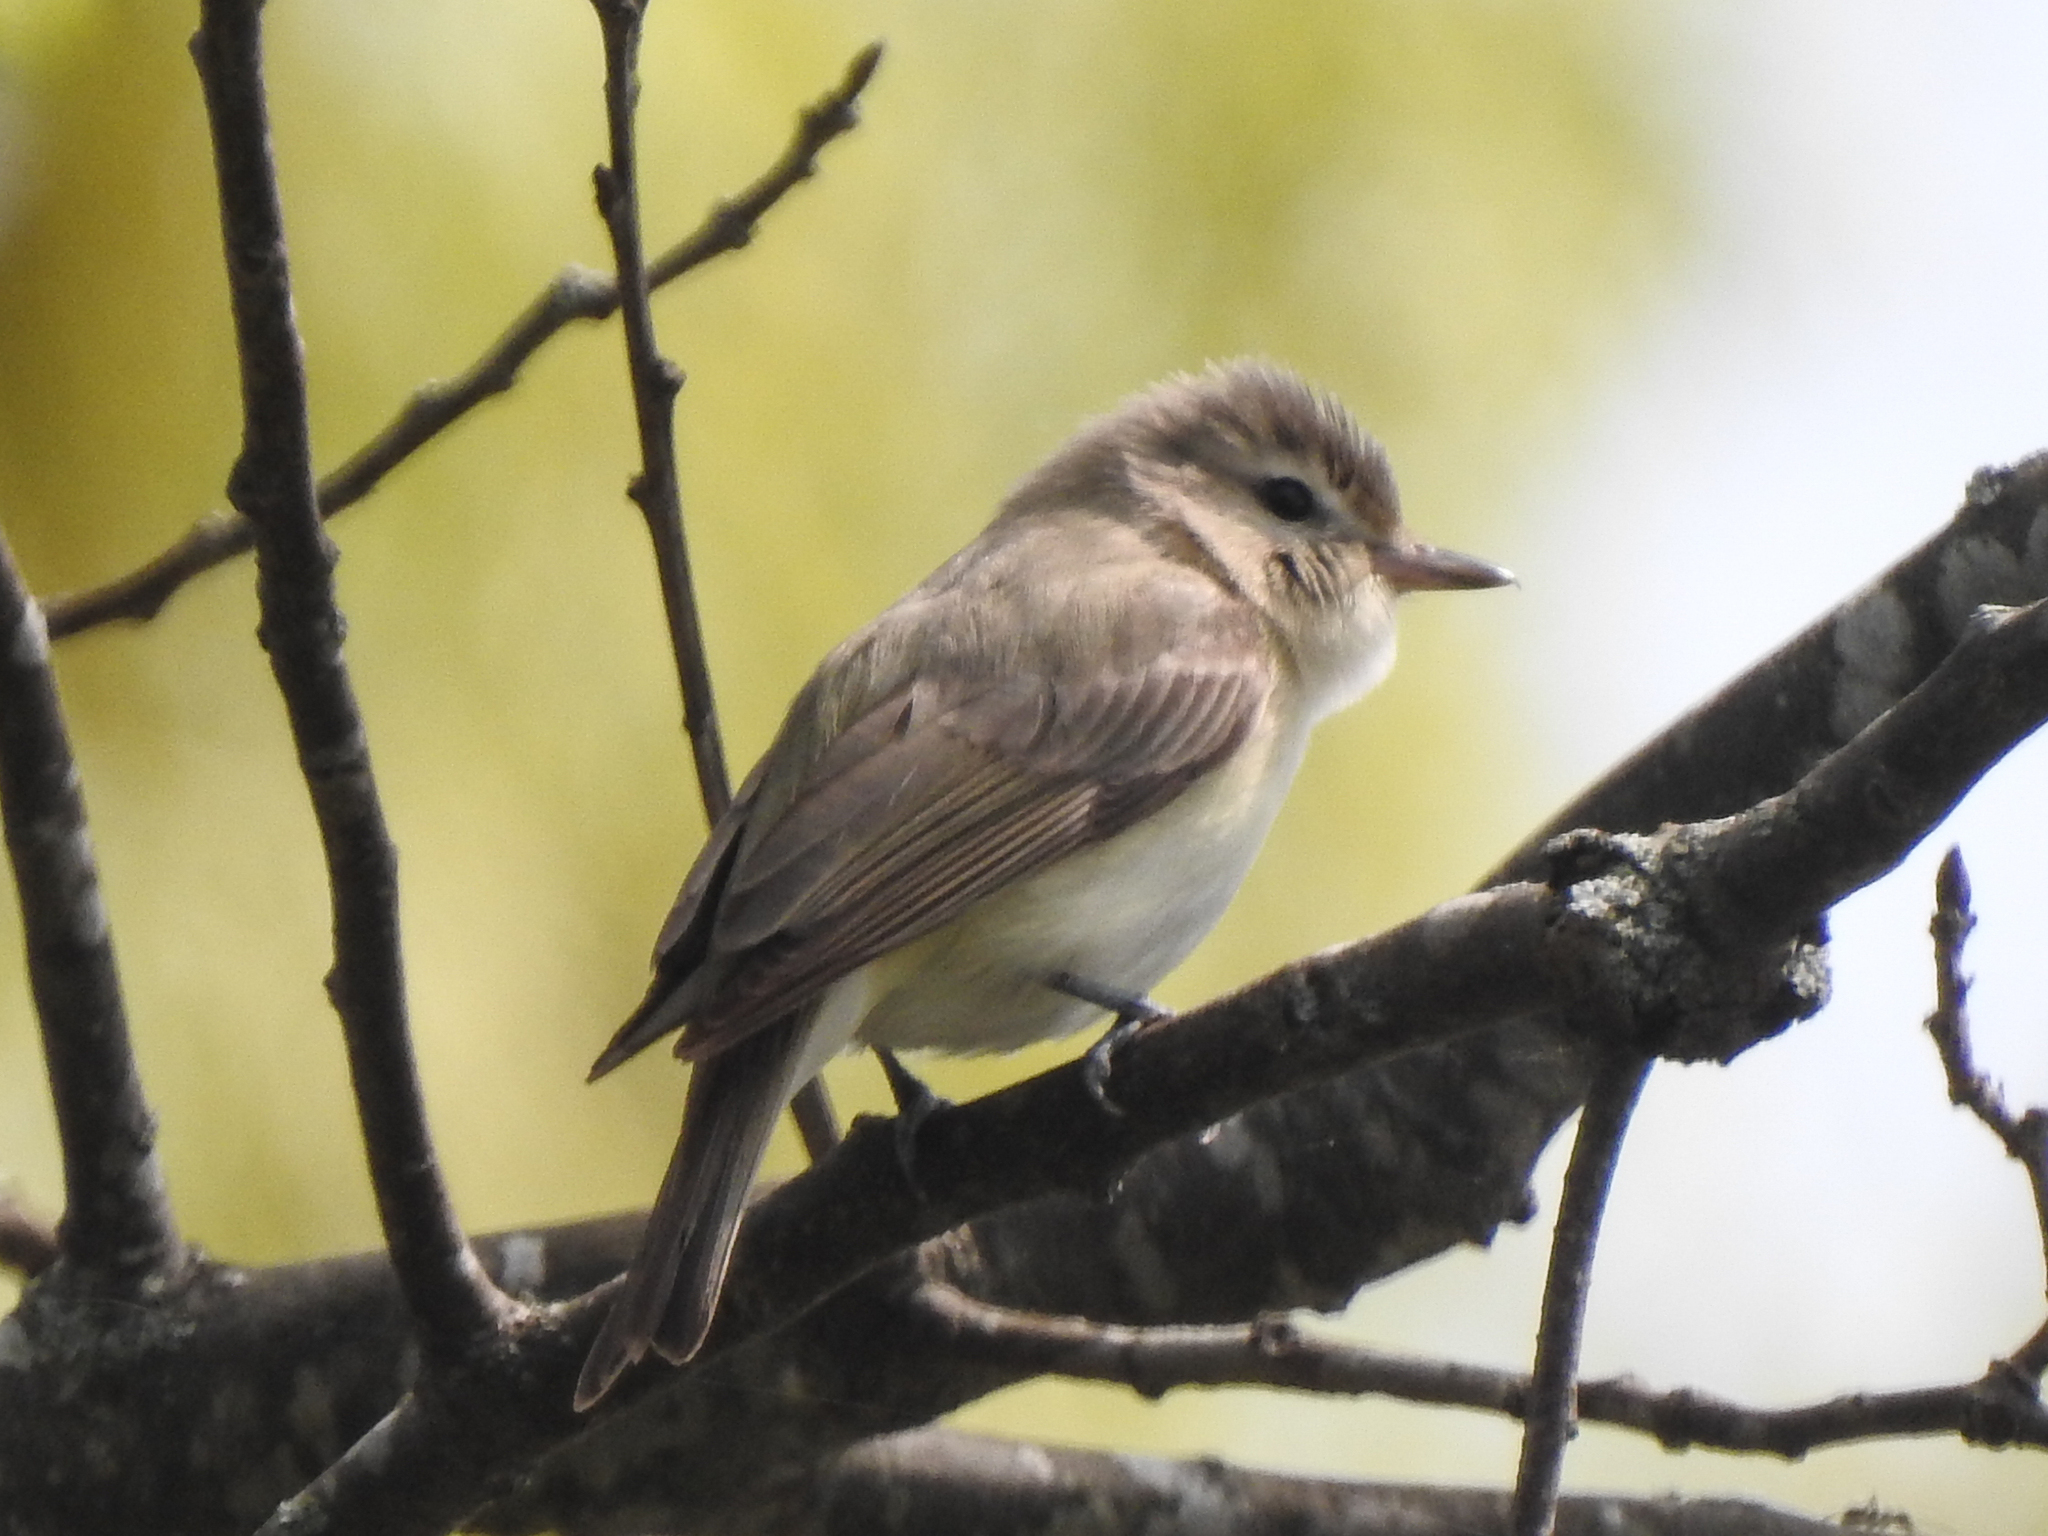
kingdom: Animalia
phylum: Chordata
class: Aves
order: Passeriformes
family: Vireonidae
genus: Vireo
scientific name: Vireo gilvus
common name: Warbling vireo
